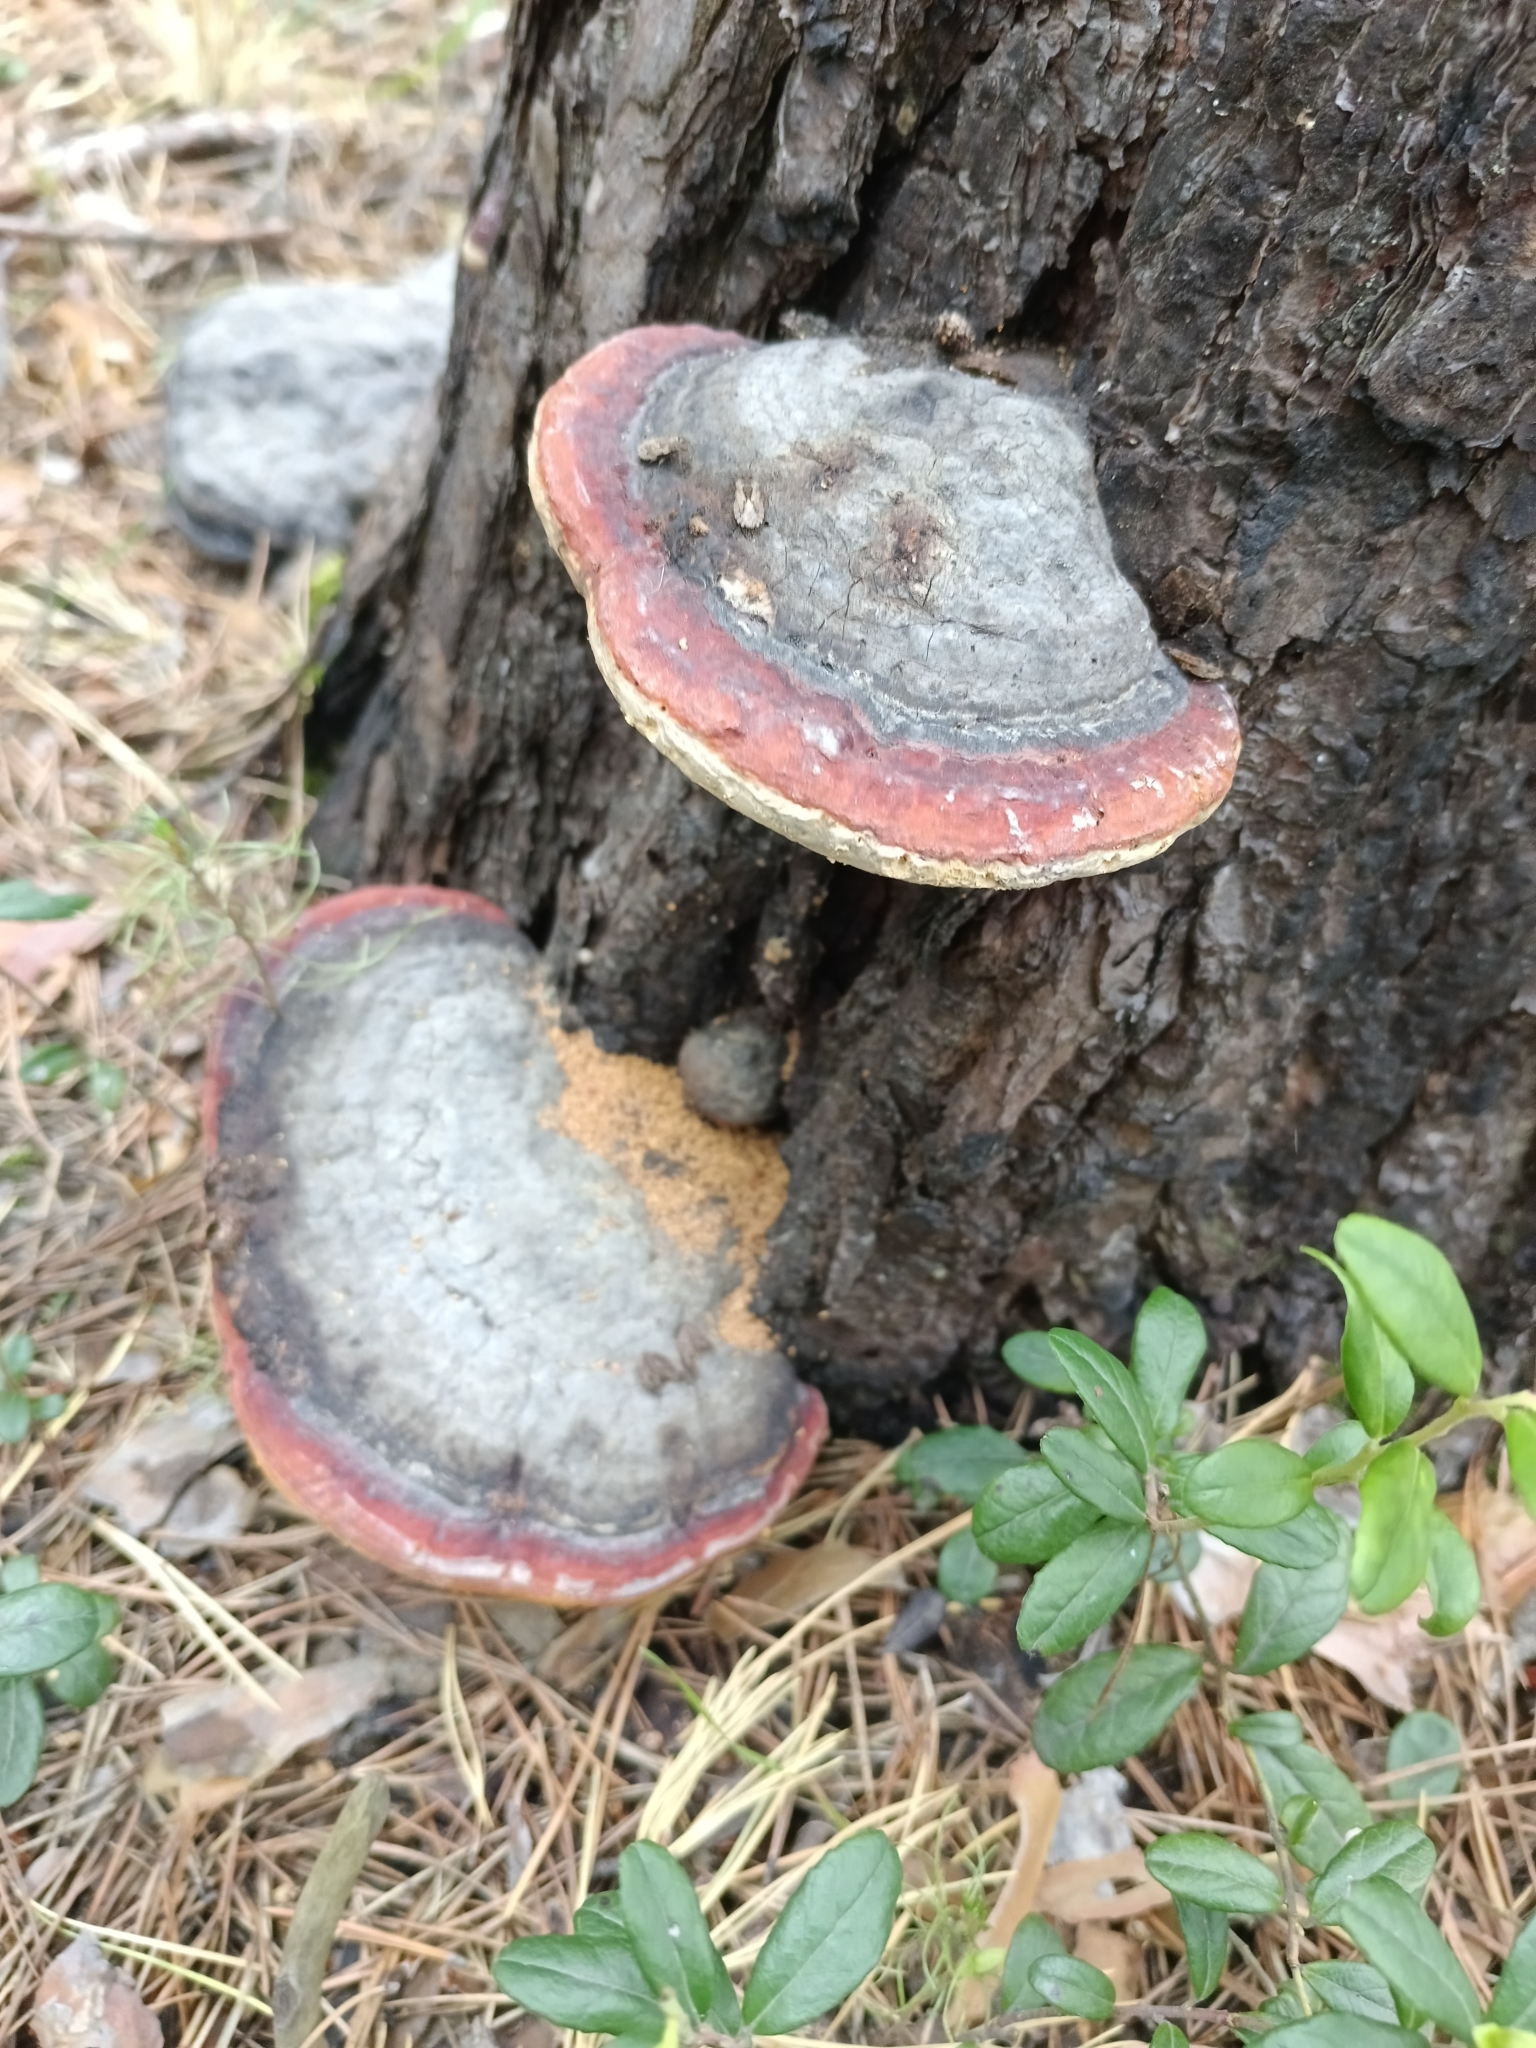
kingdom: Fungi
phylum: Basidiomycota
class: Agaricomycetes
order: Polyporales
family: Fomitopsidaceae
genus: Fomitopsis
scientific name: Fomitopsis pinicola
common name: Red-belted bracket
